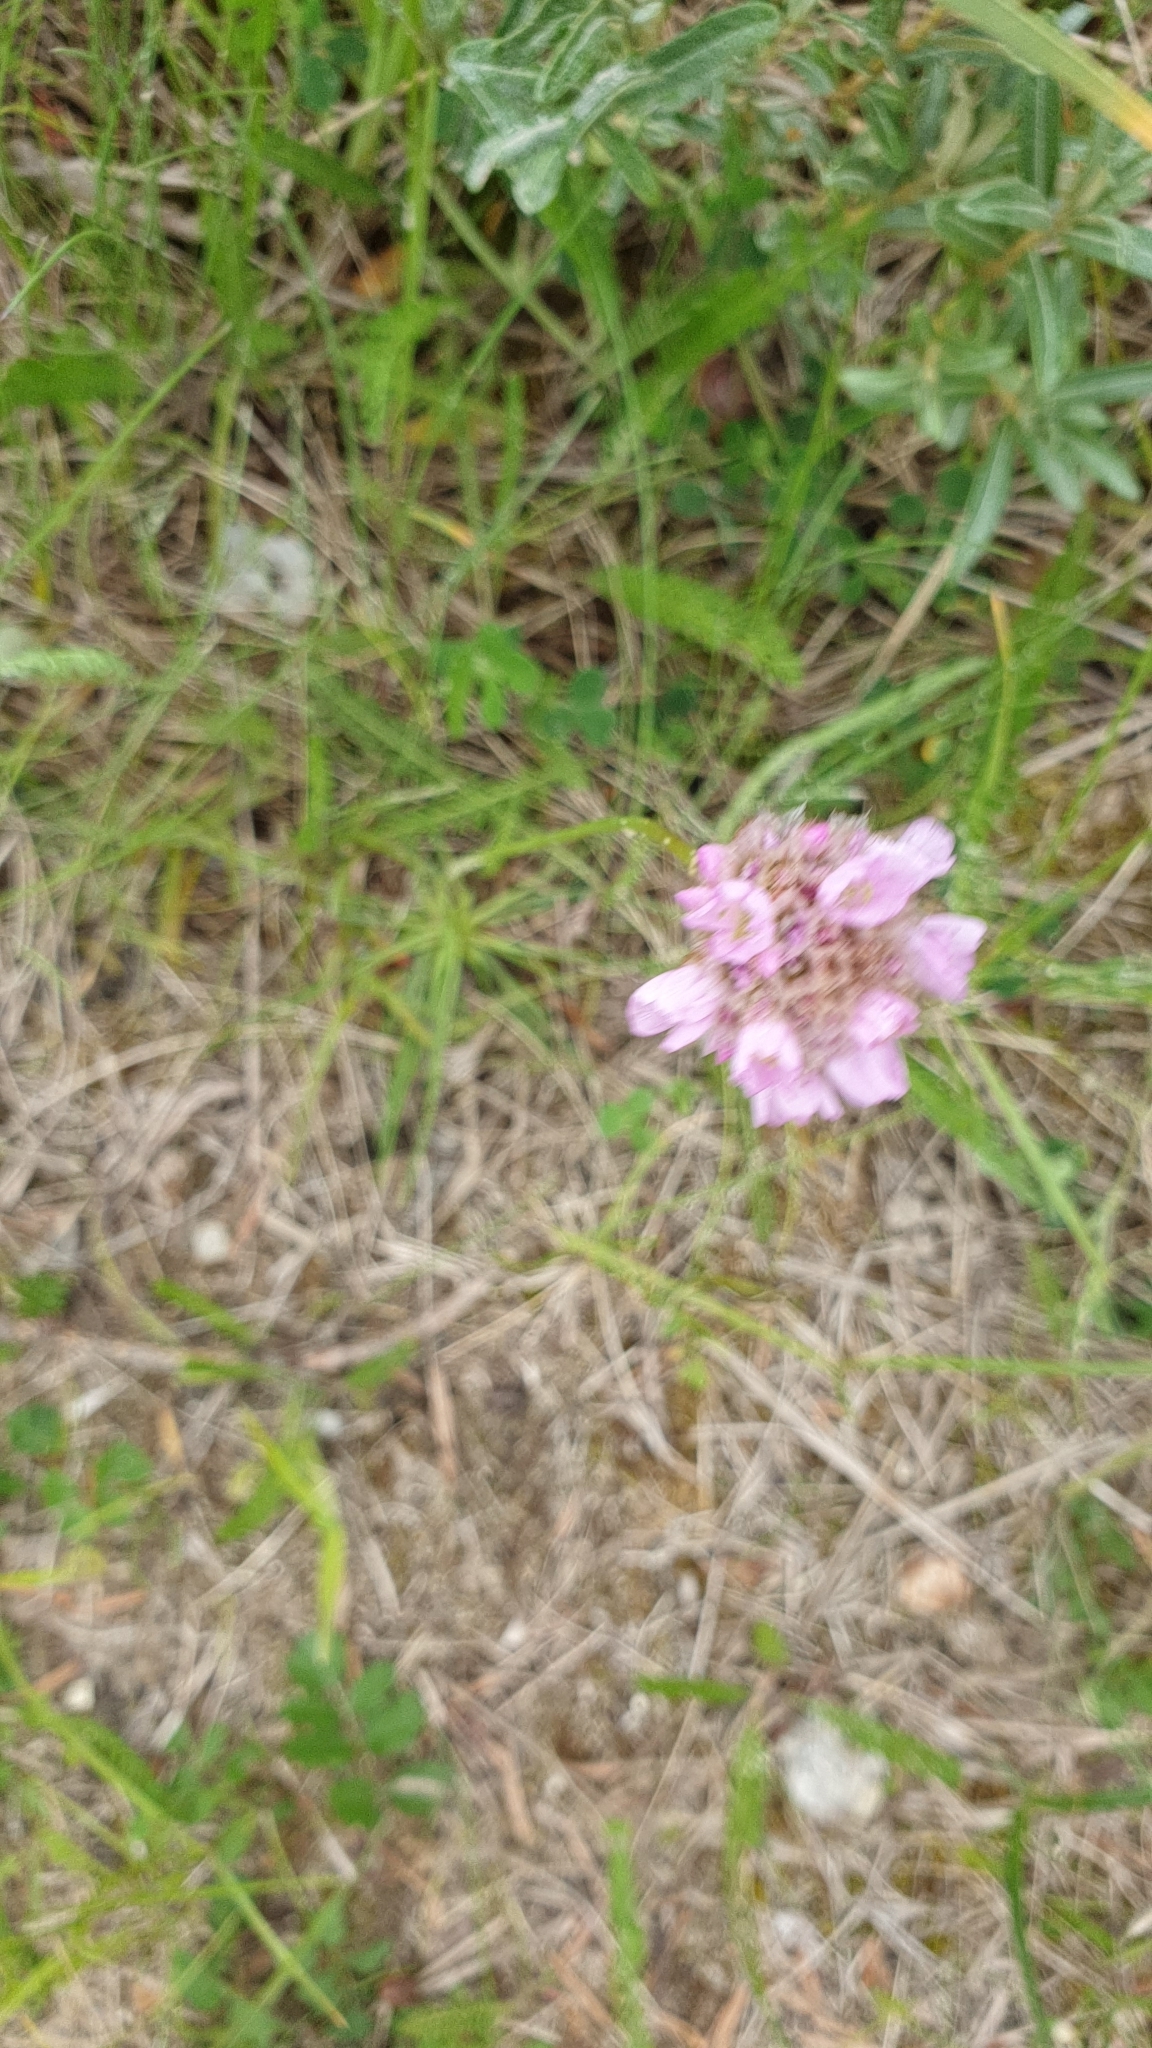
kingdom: Plantae
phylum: Tracheophyta
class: Magnoliopsida
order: Caryophyllales
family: Plumbaginaceae
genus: Armeria
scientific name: Armeria maritima
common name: Thrift
